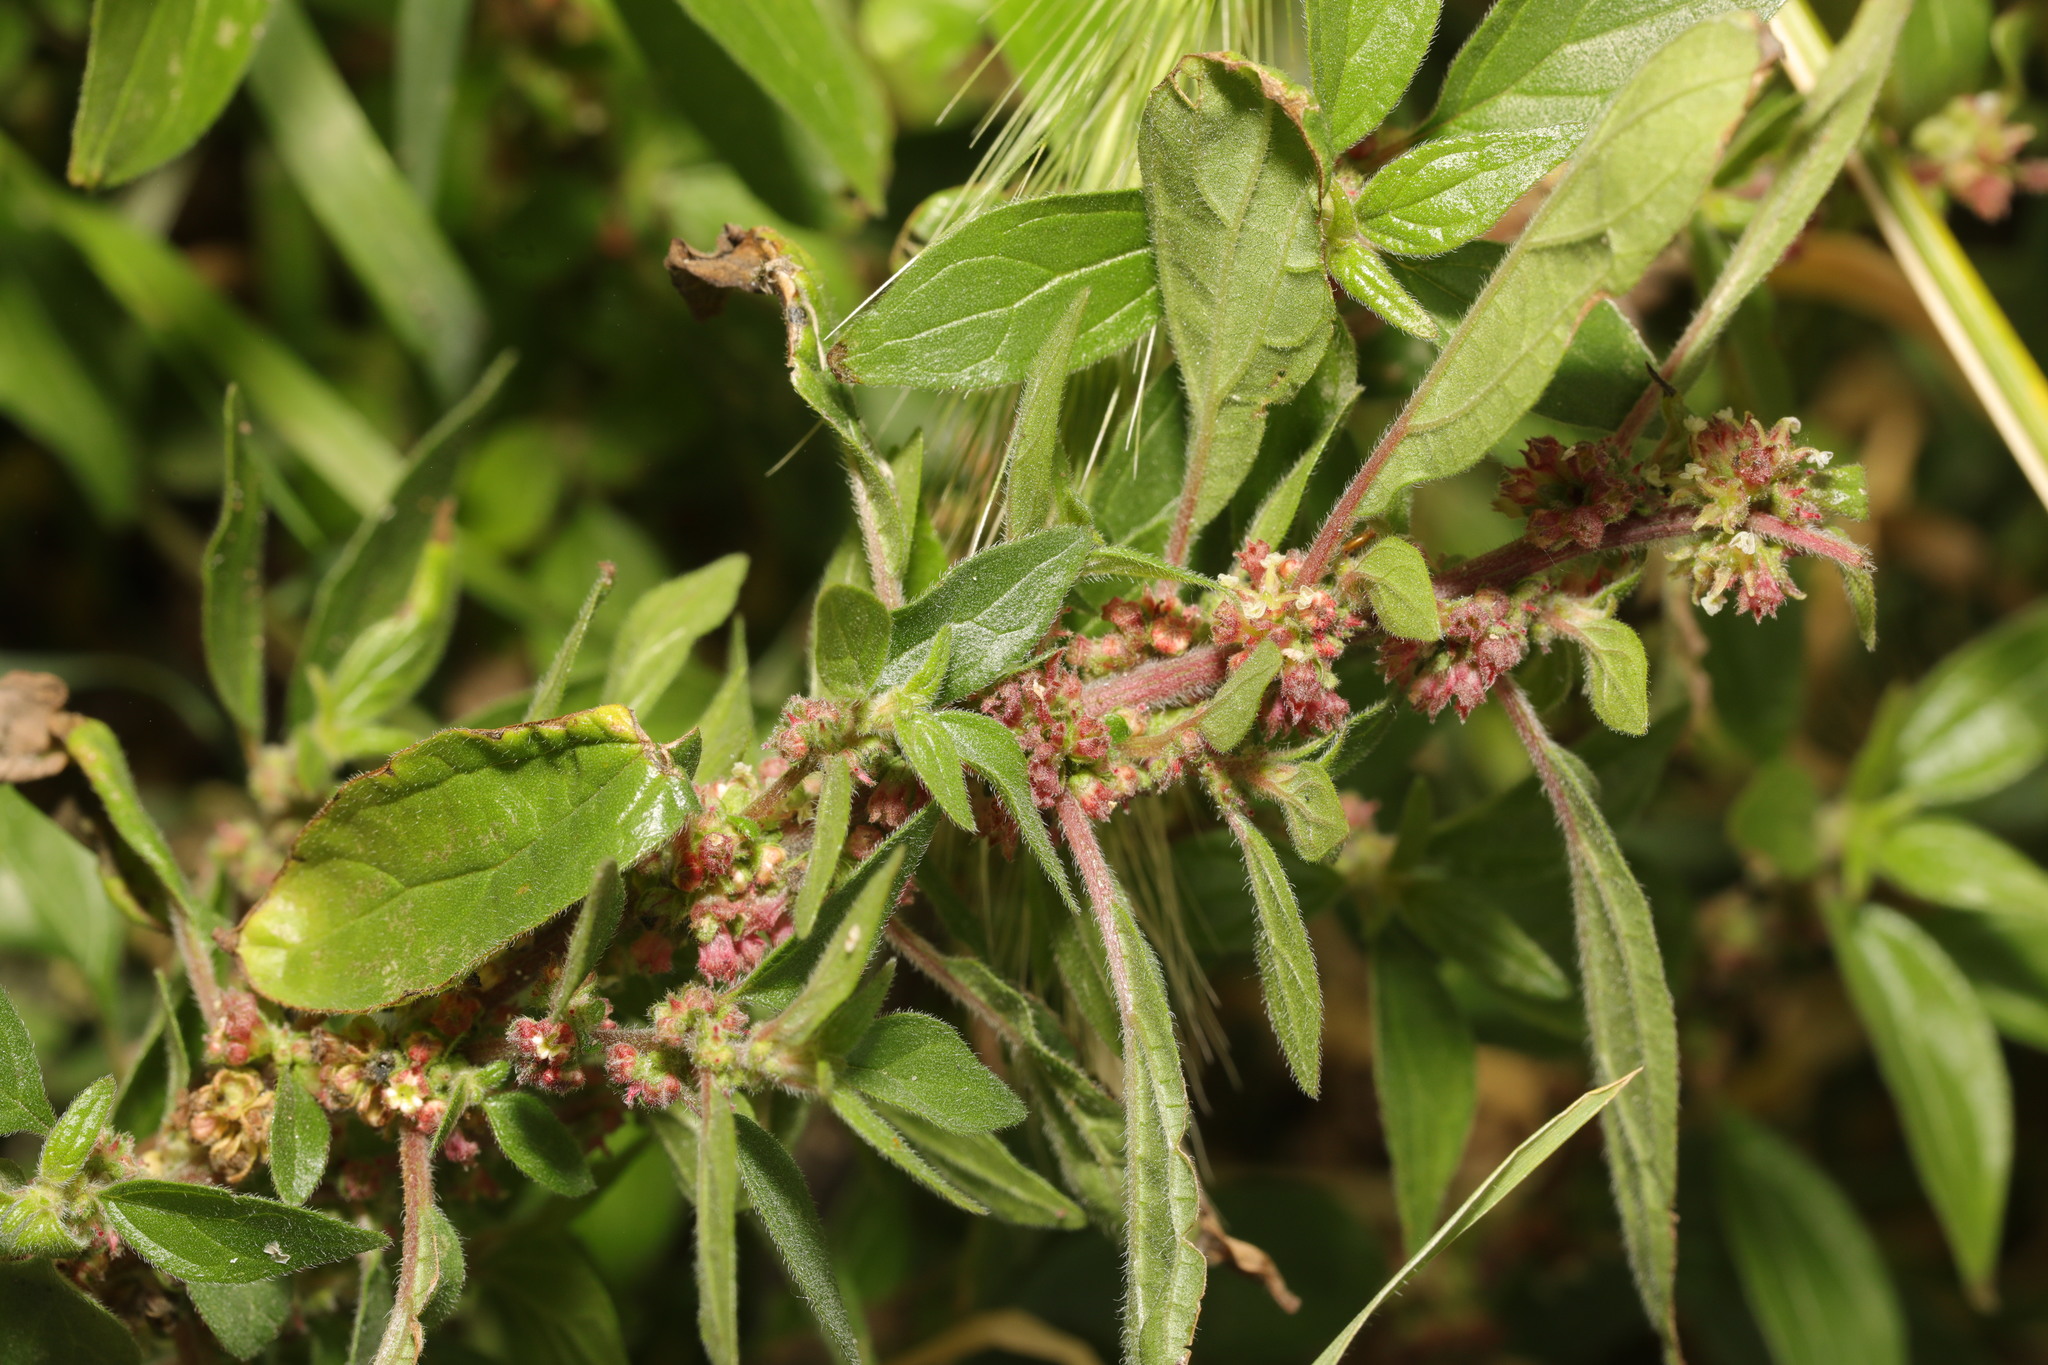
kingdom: Plantae
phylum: Tracheophyta
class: Magnoliopsida
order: Rosales
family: Urticaceae
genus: Parietaria
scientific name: Parietaria judaica
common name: Pellitory-of-the-wall
